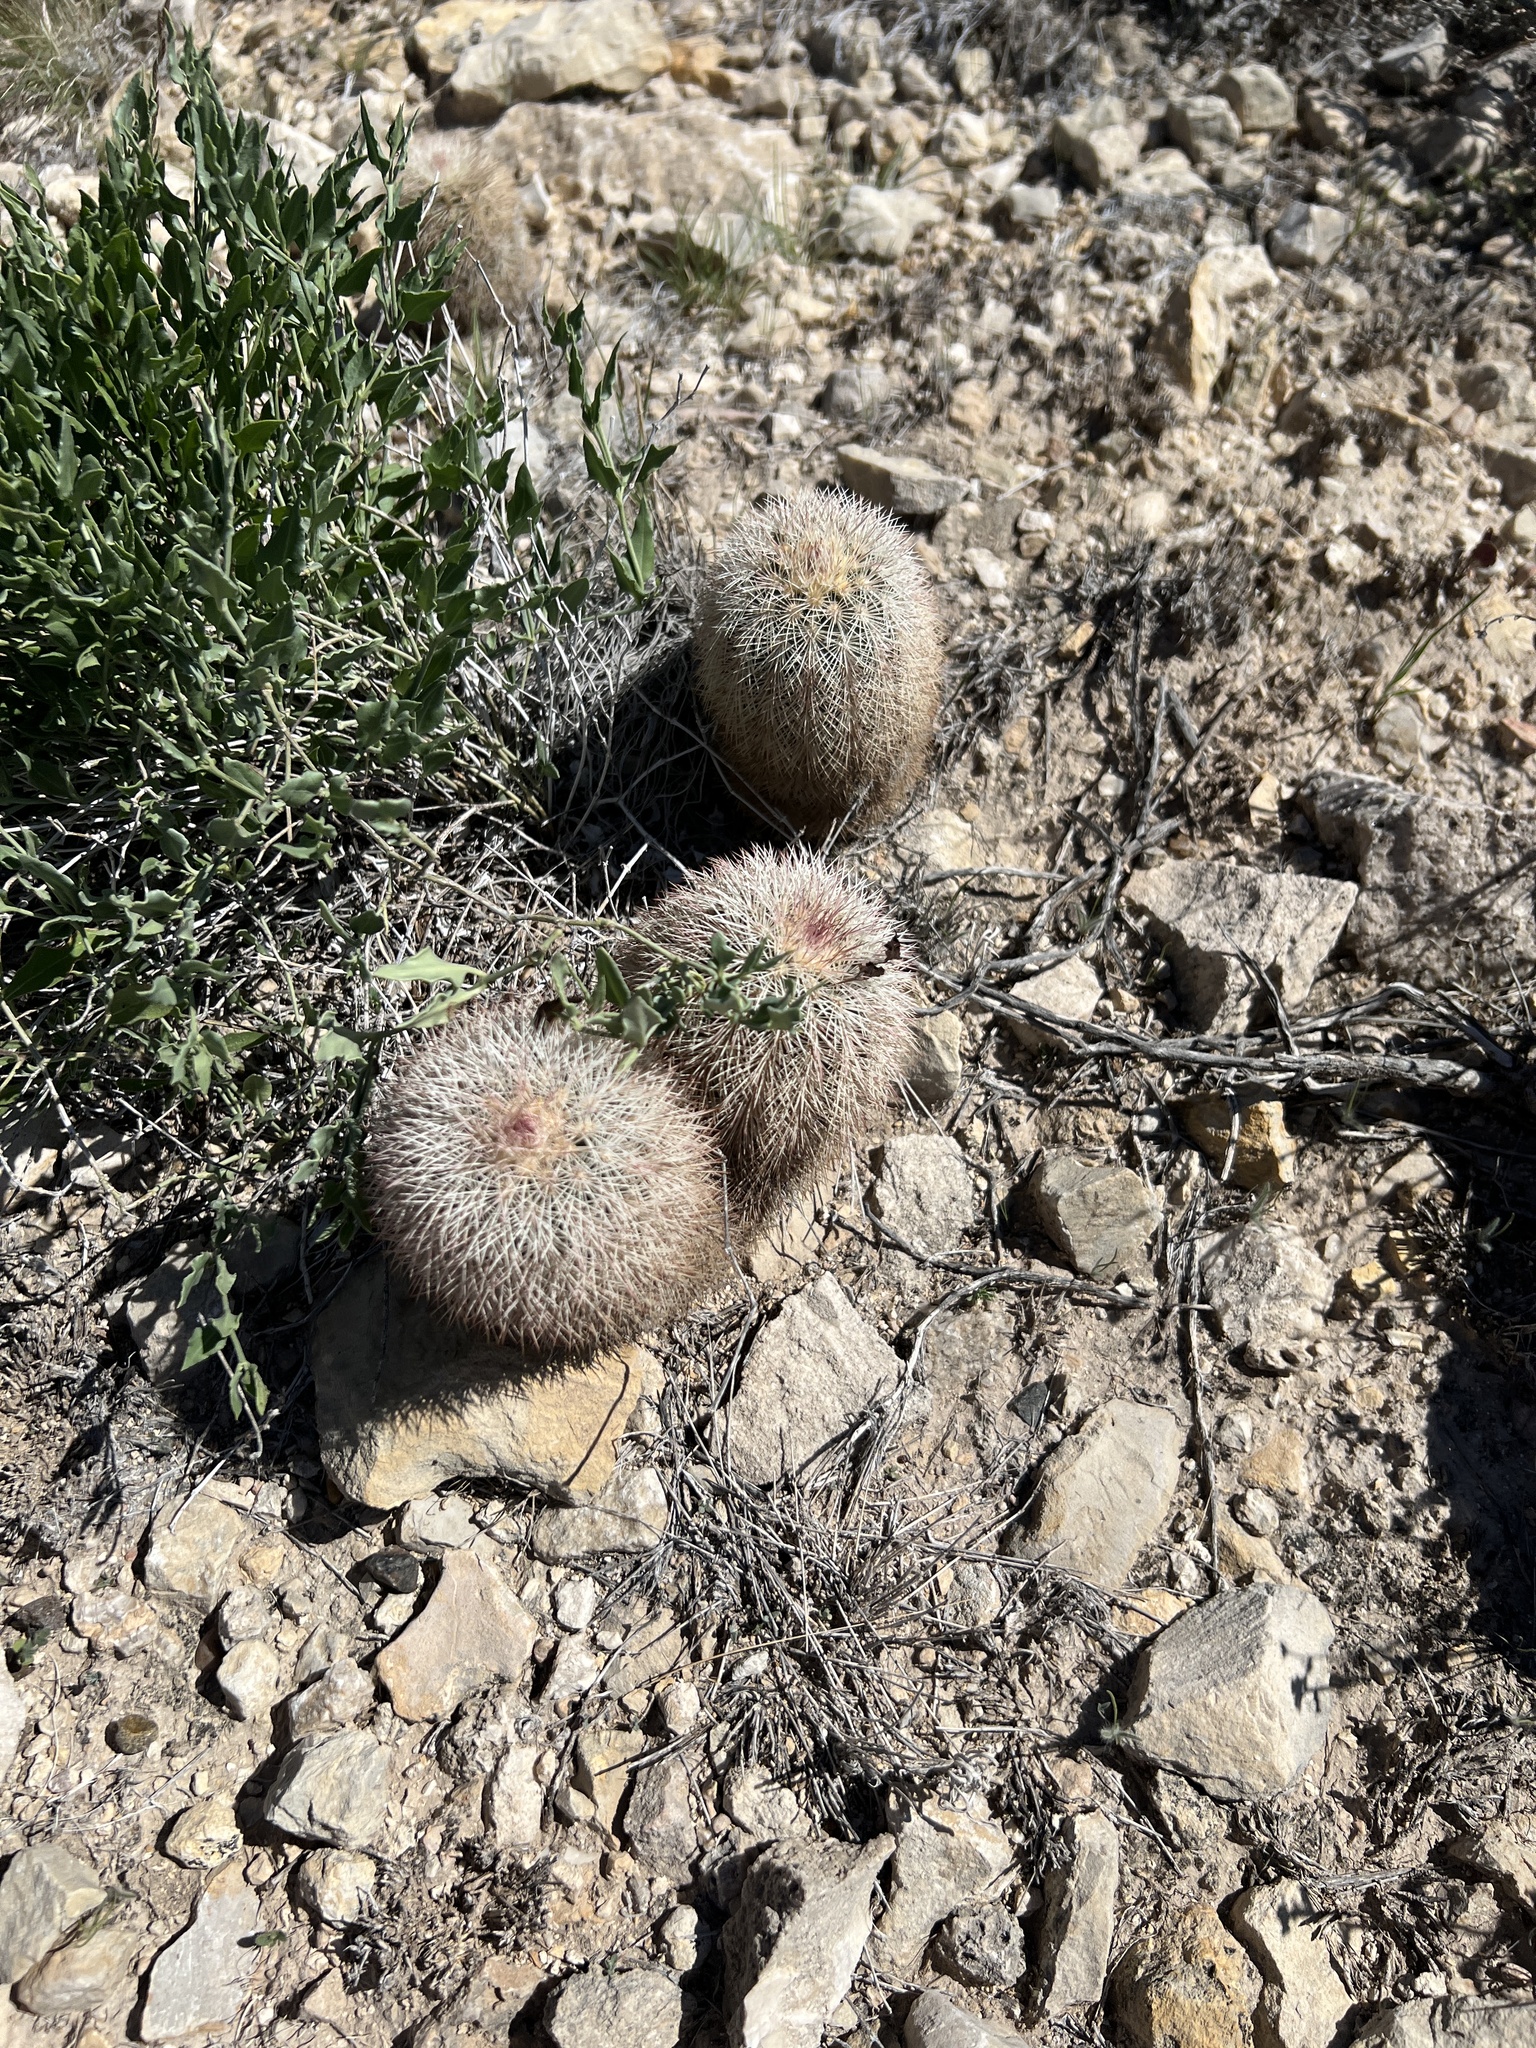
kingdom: Plantae
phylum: Tracheophyta
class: Magnoliopsida
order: Caryophyllales
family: Cactaceae
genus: Echinocereus
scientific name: Echinocereus dasyacanthus
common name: Spiny hedgehog cactus
